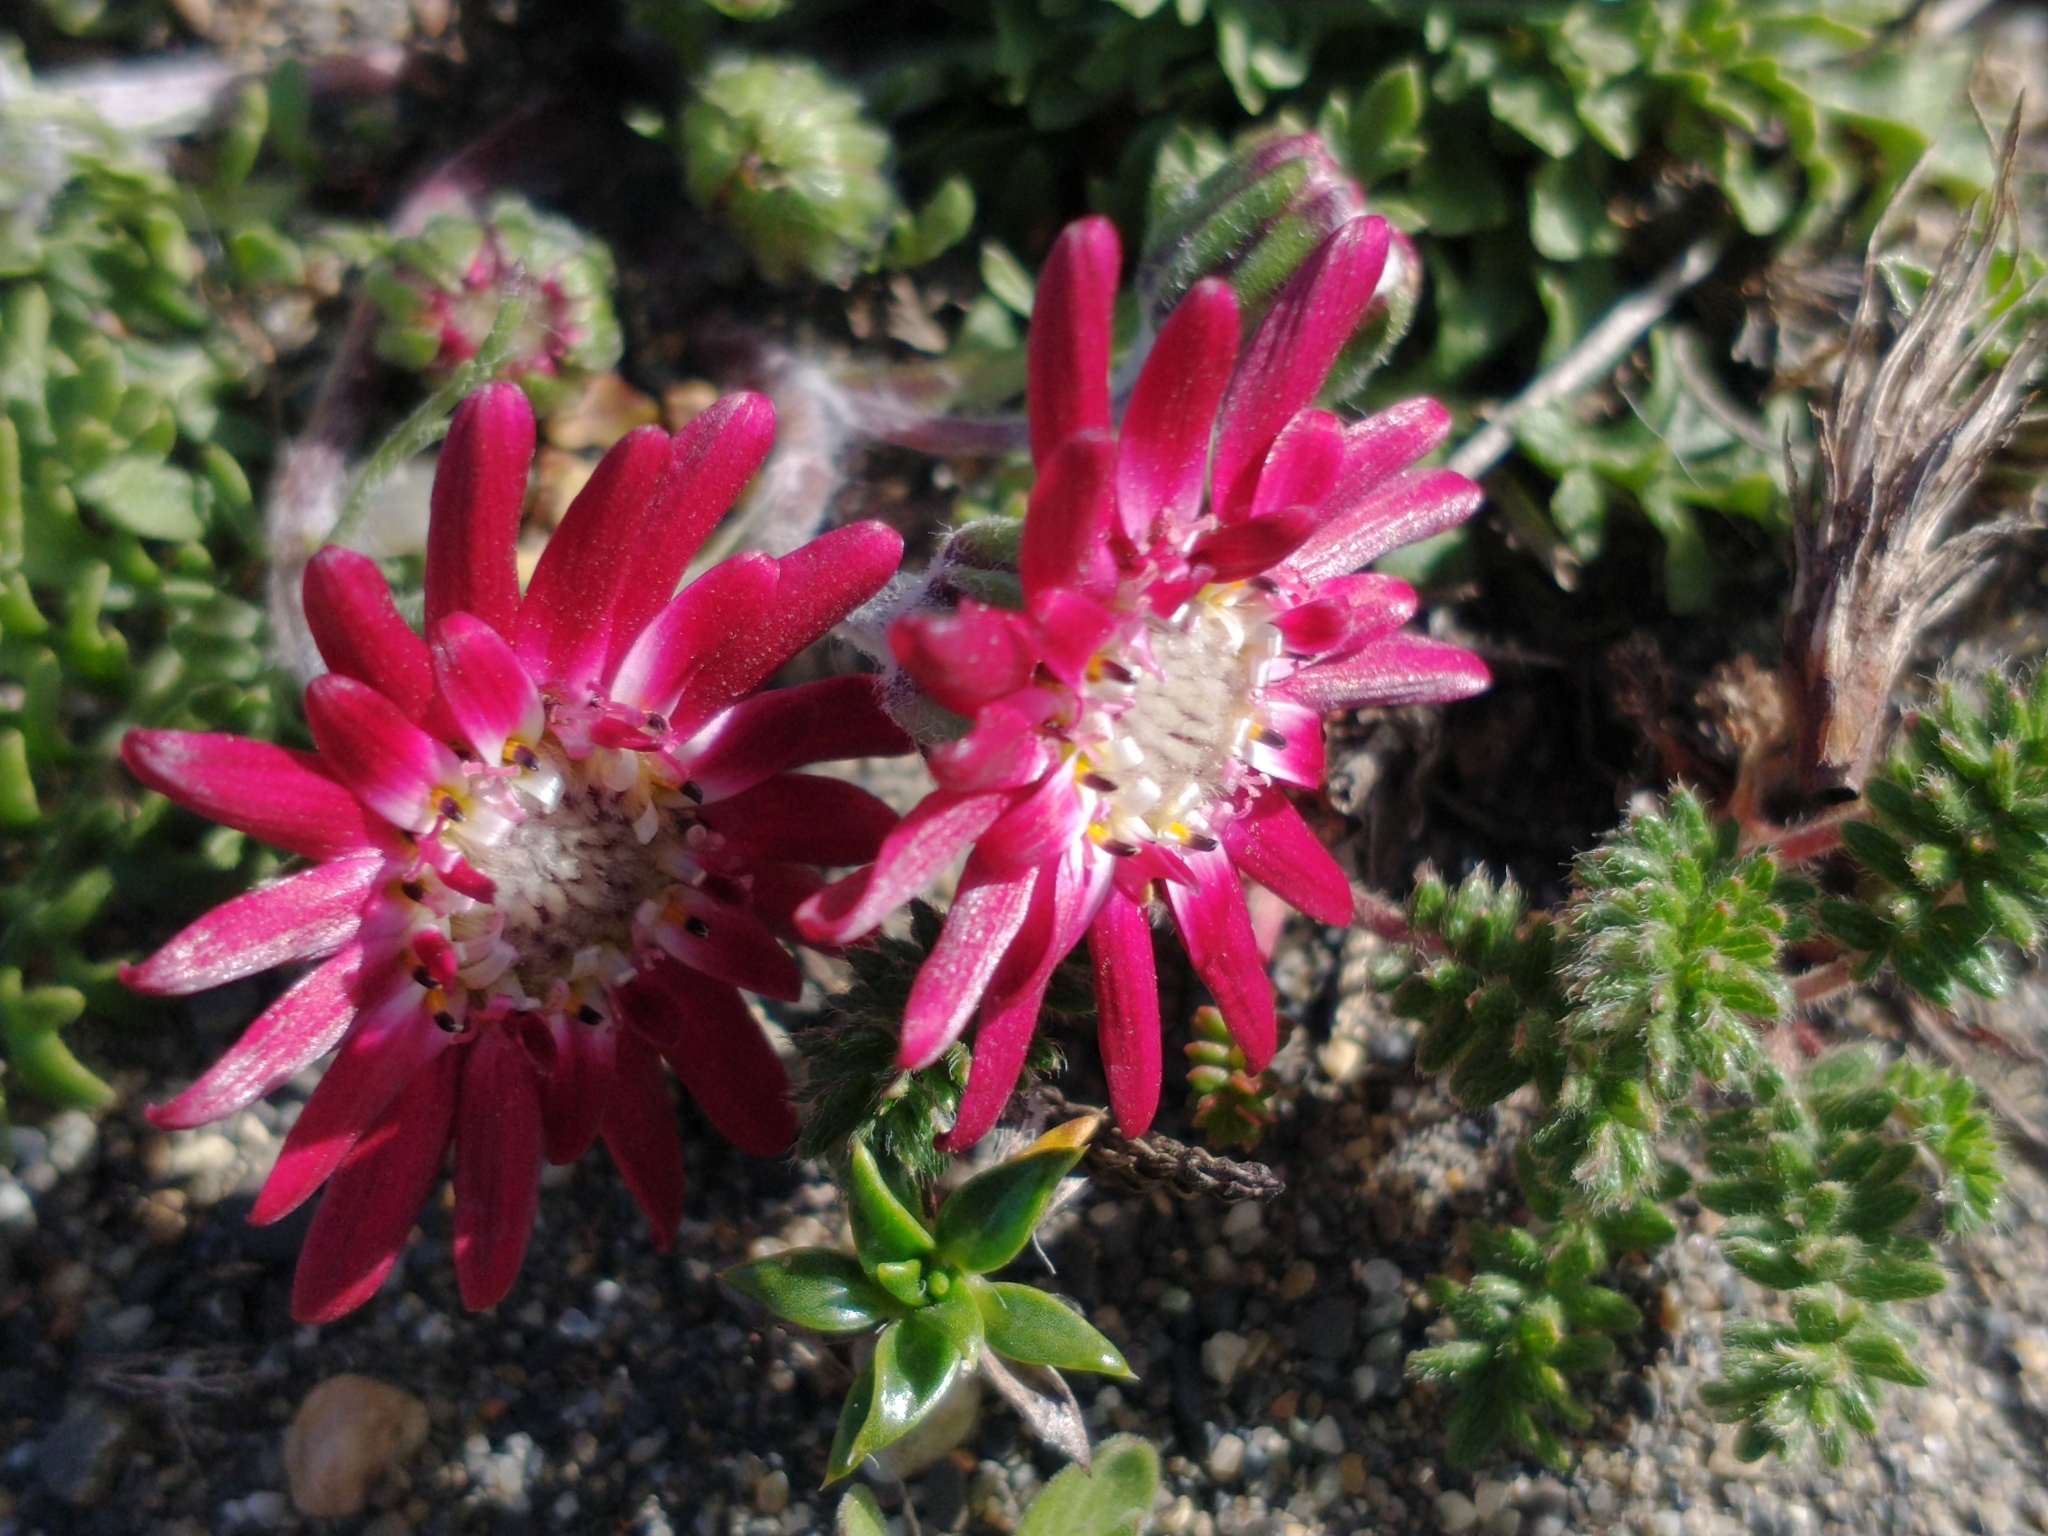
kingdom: Plantae
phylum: Tracheophyta
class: Magnoliopsida
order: Asterales
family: Asteraceae
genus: Leucheria
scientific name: Leucheria purpurea
